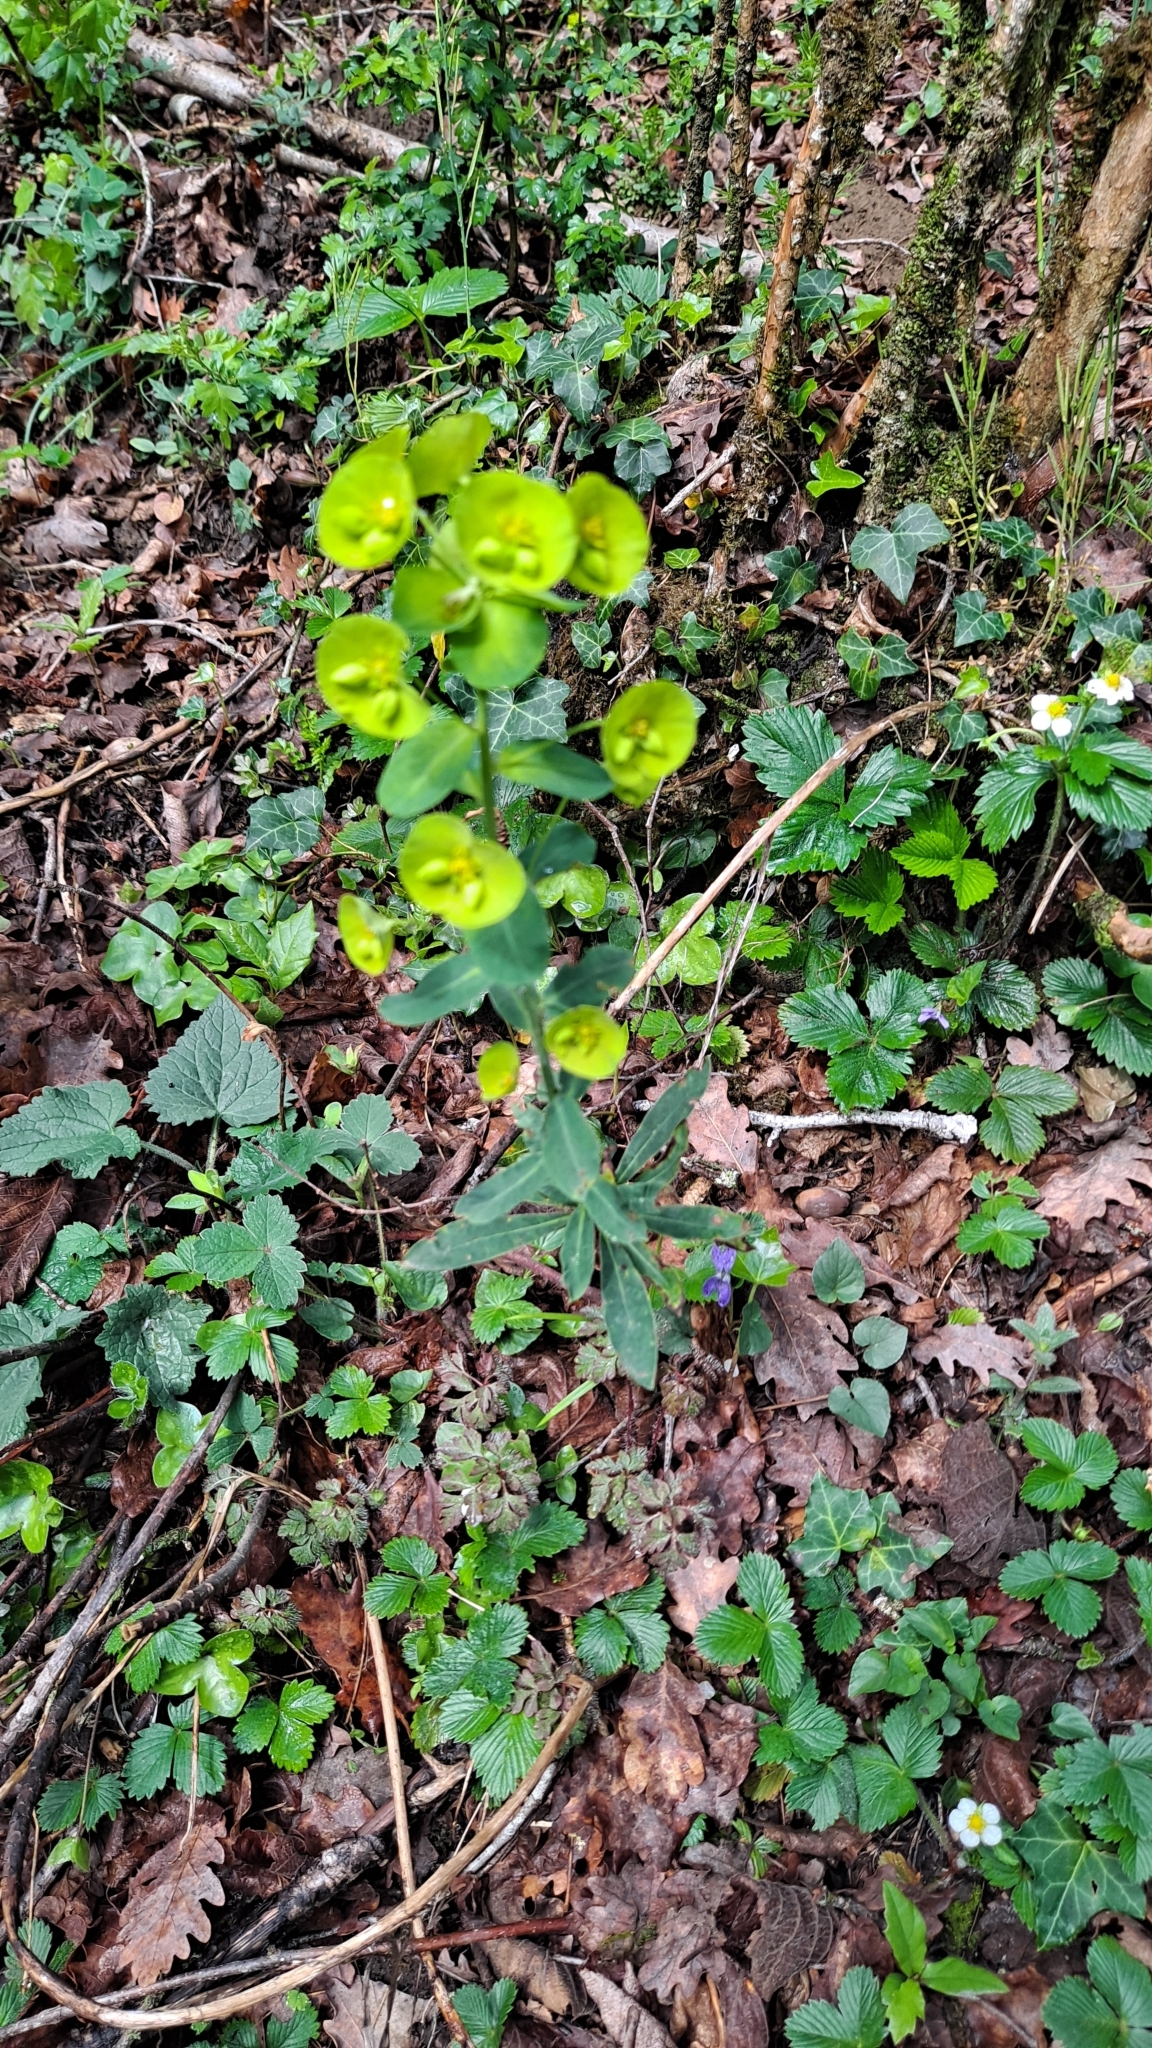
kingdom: Plantae
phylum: Tracheophyta
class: Magnoliopsida
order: Malpighiales
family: Euphorbiaceae
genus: Euphorbia
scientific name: Euphorbia amygdaloides
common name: Wood spurge
